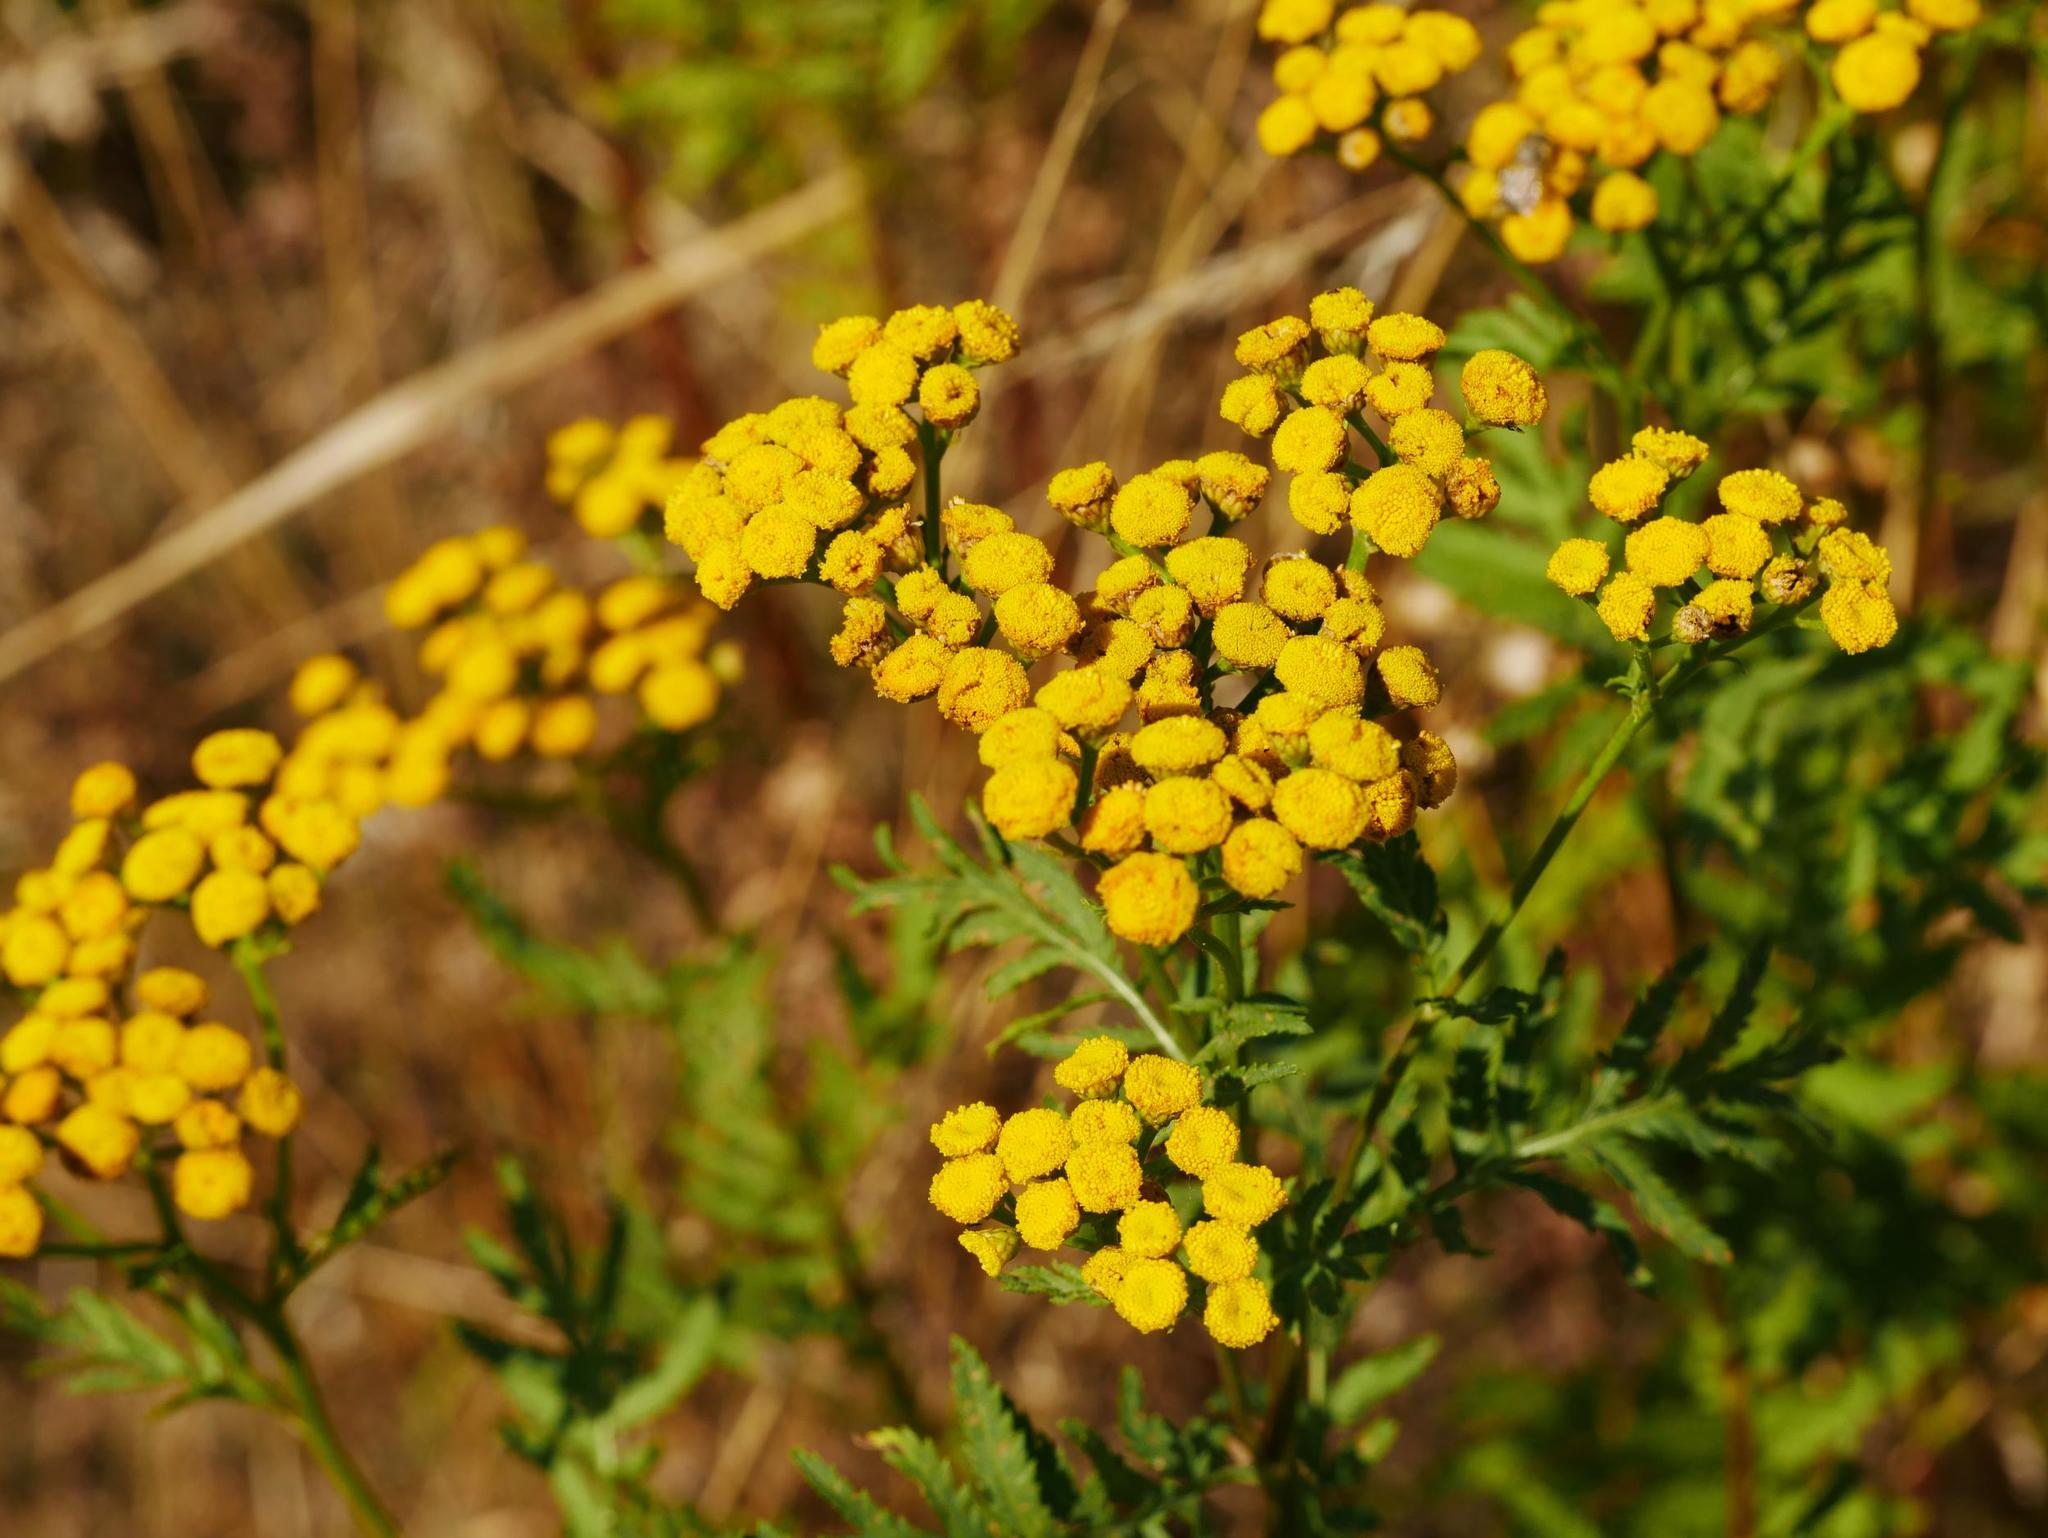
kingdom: Plantae
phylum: Tracheophyta
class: Magnoliopsida
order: Asterales
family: Asteraceae
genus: Tanacetum
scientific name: Tanacetum vulgare
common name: Common tansy
